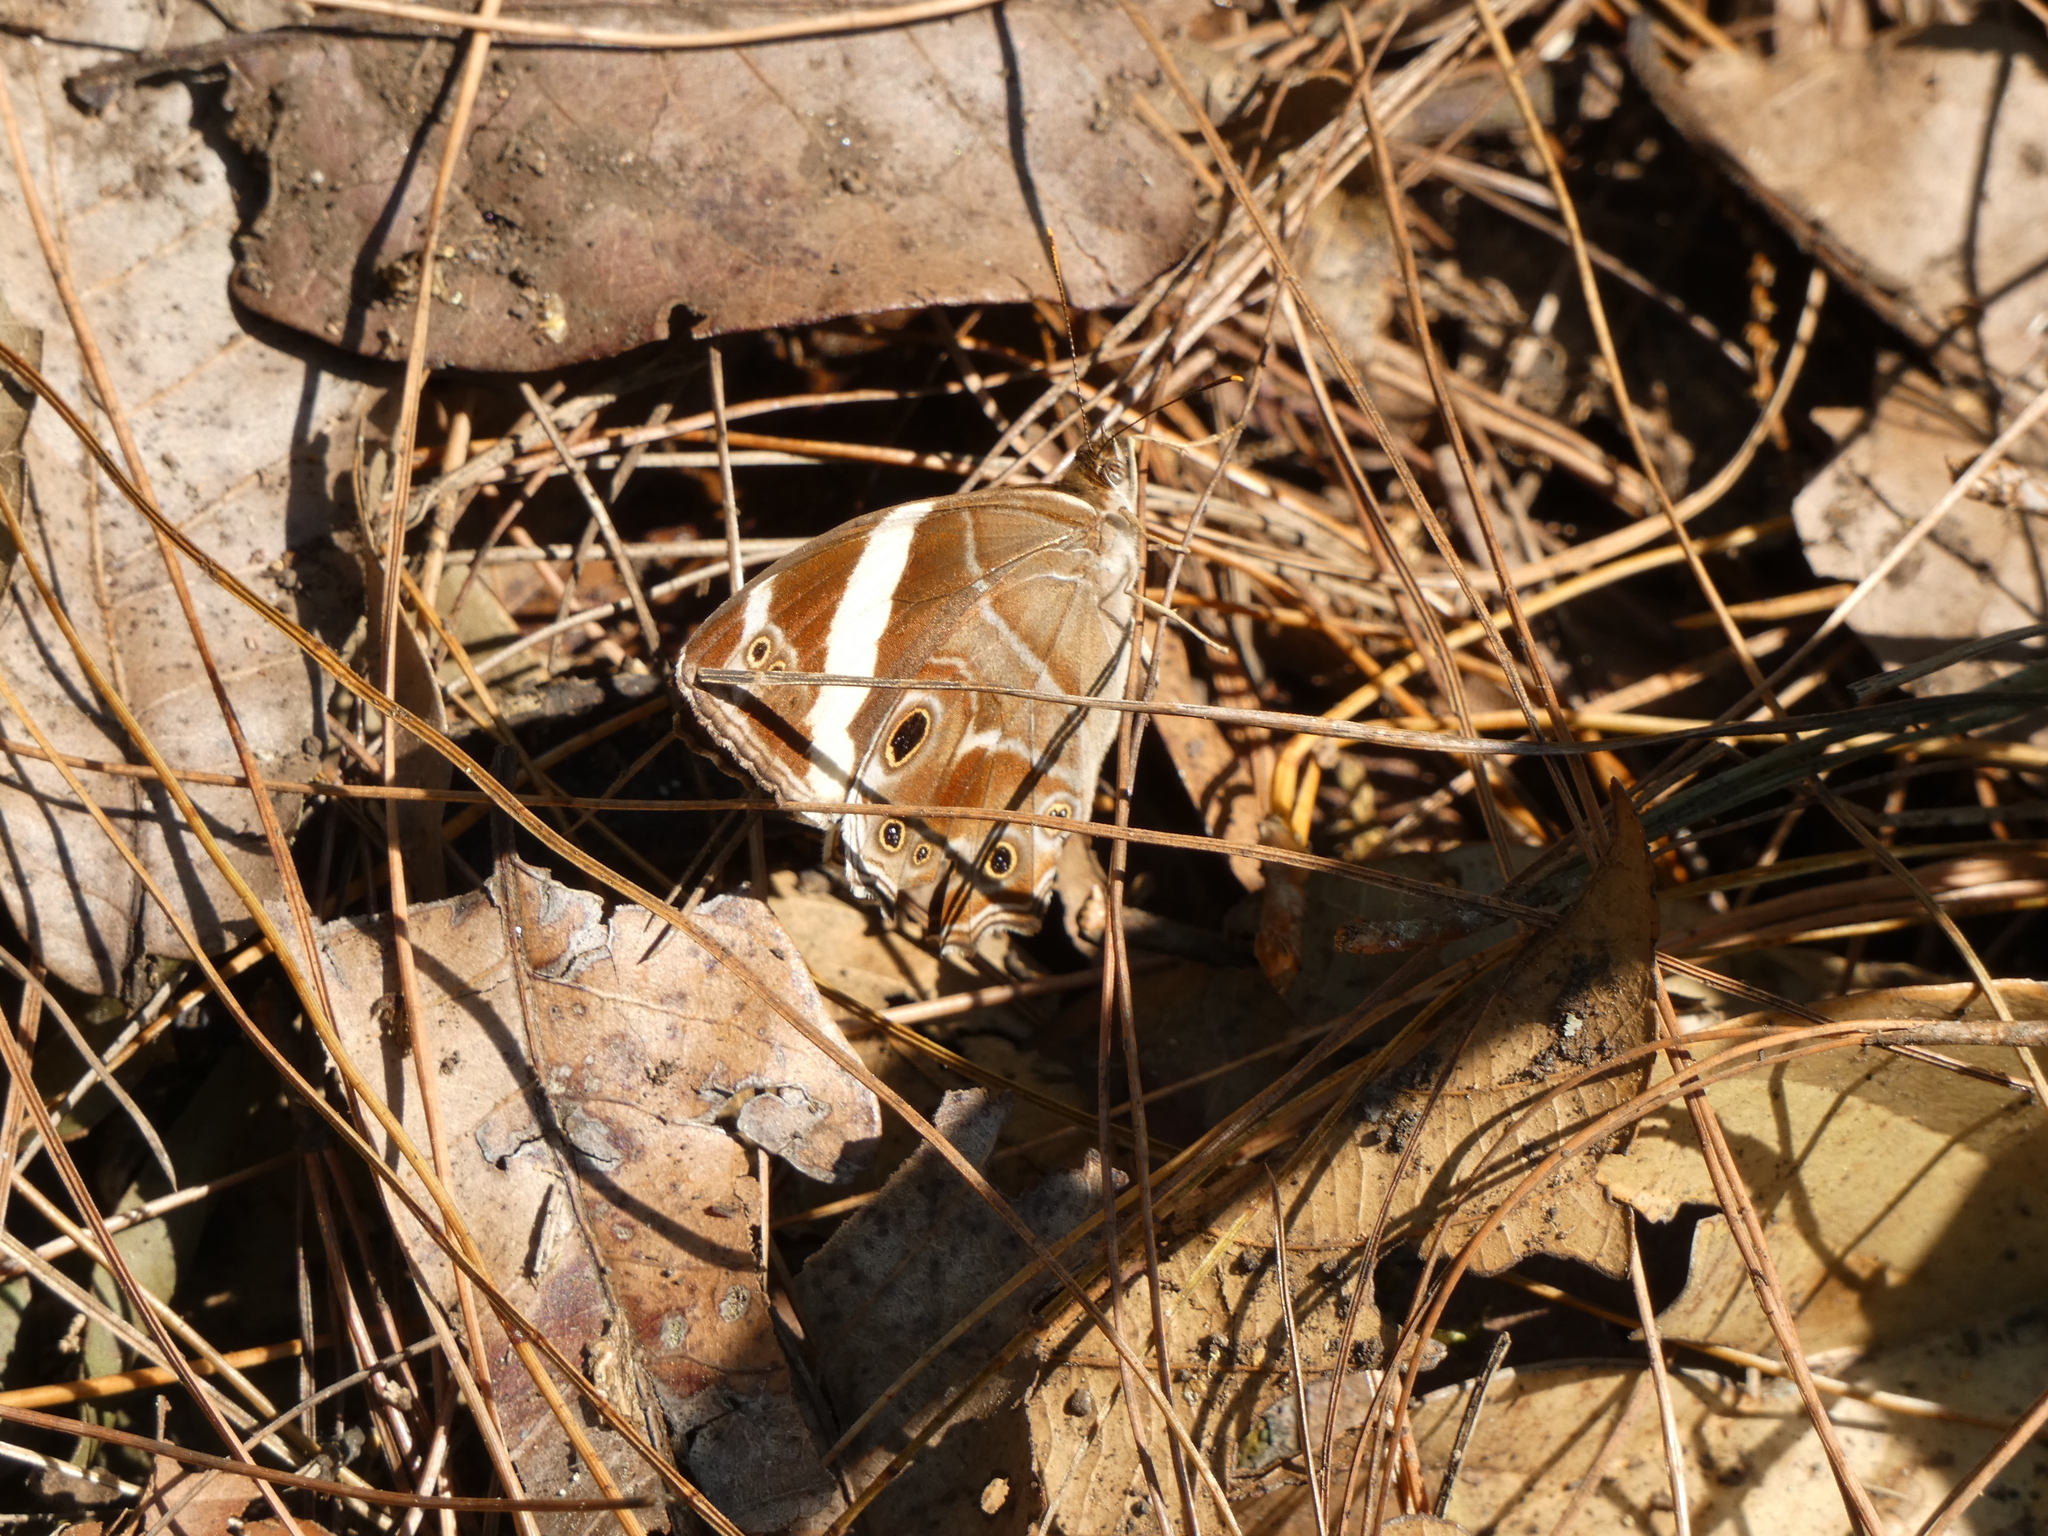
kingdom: Animalia
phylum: Arthropoda
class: Insecta
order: Lepidoptera
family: Nymphalidae
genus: Lethe
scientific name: Lethe confusa
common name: Banded treebrown
